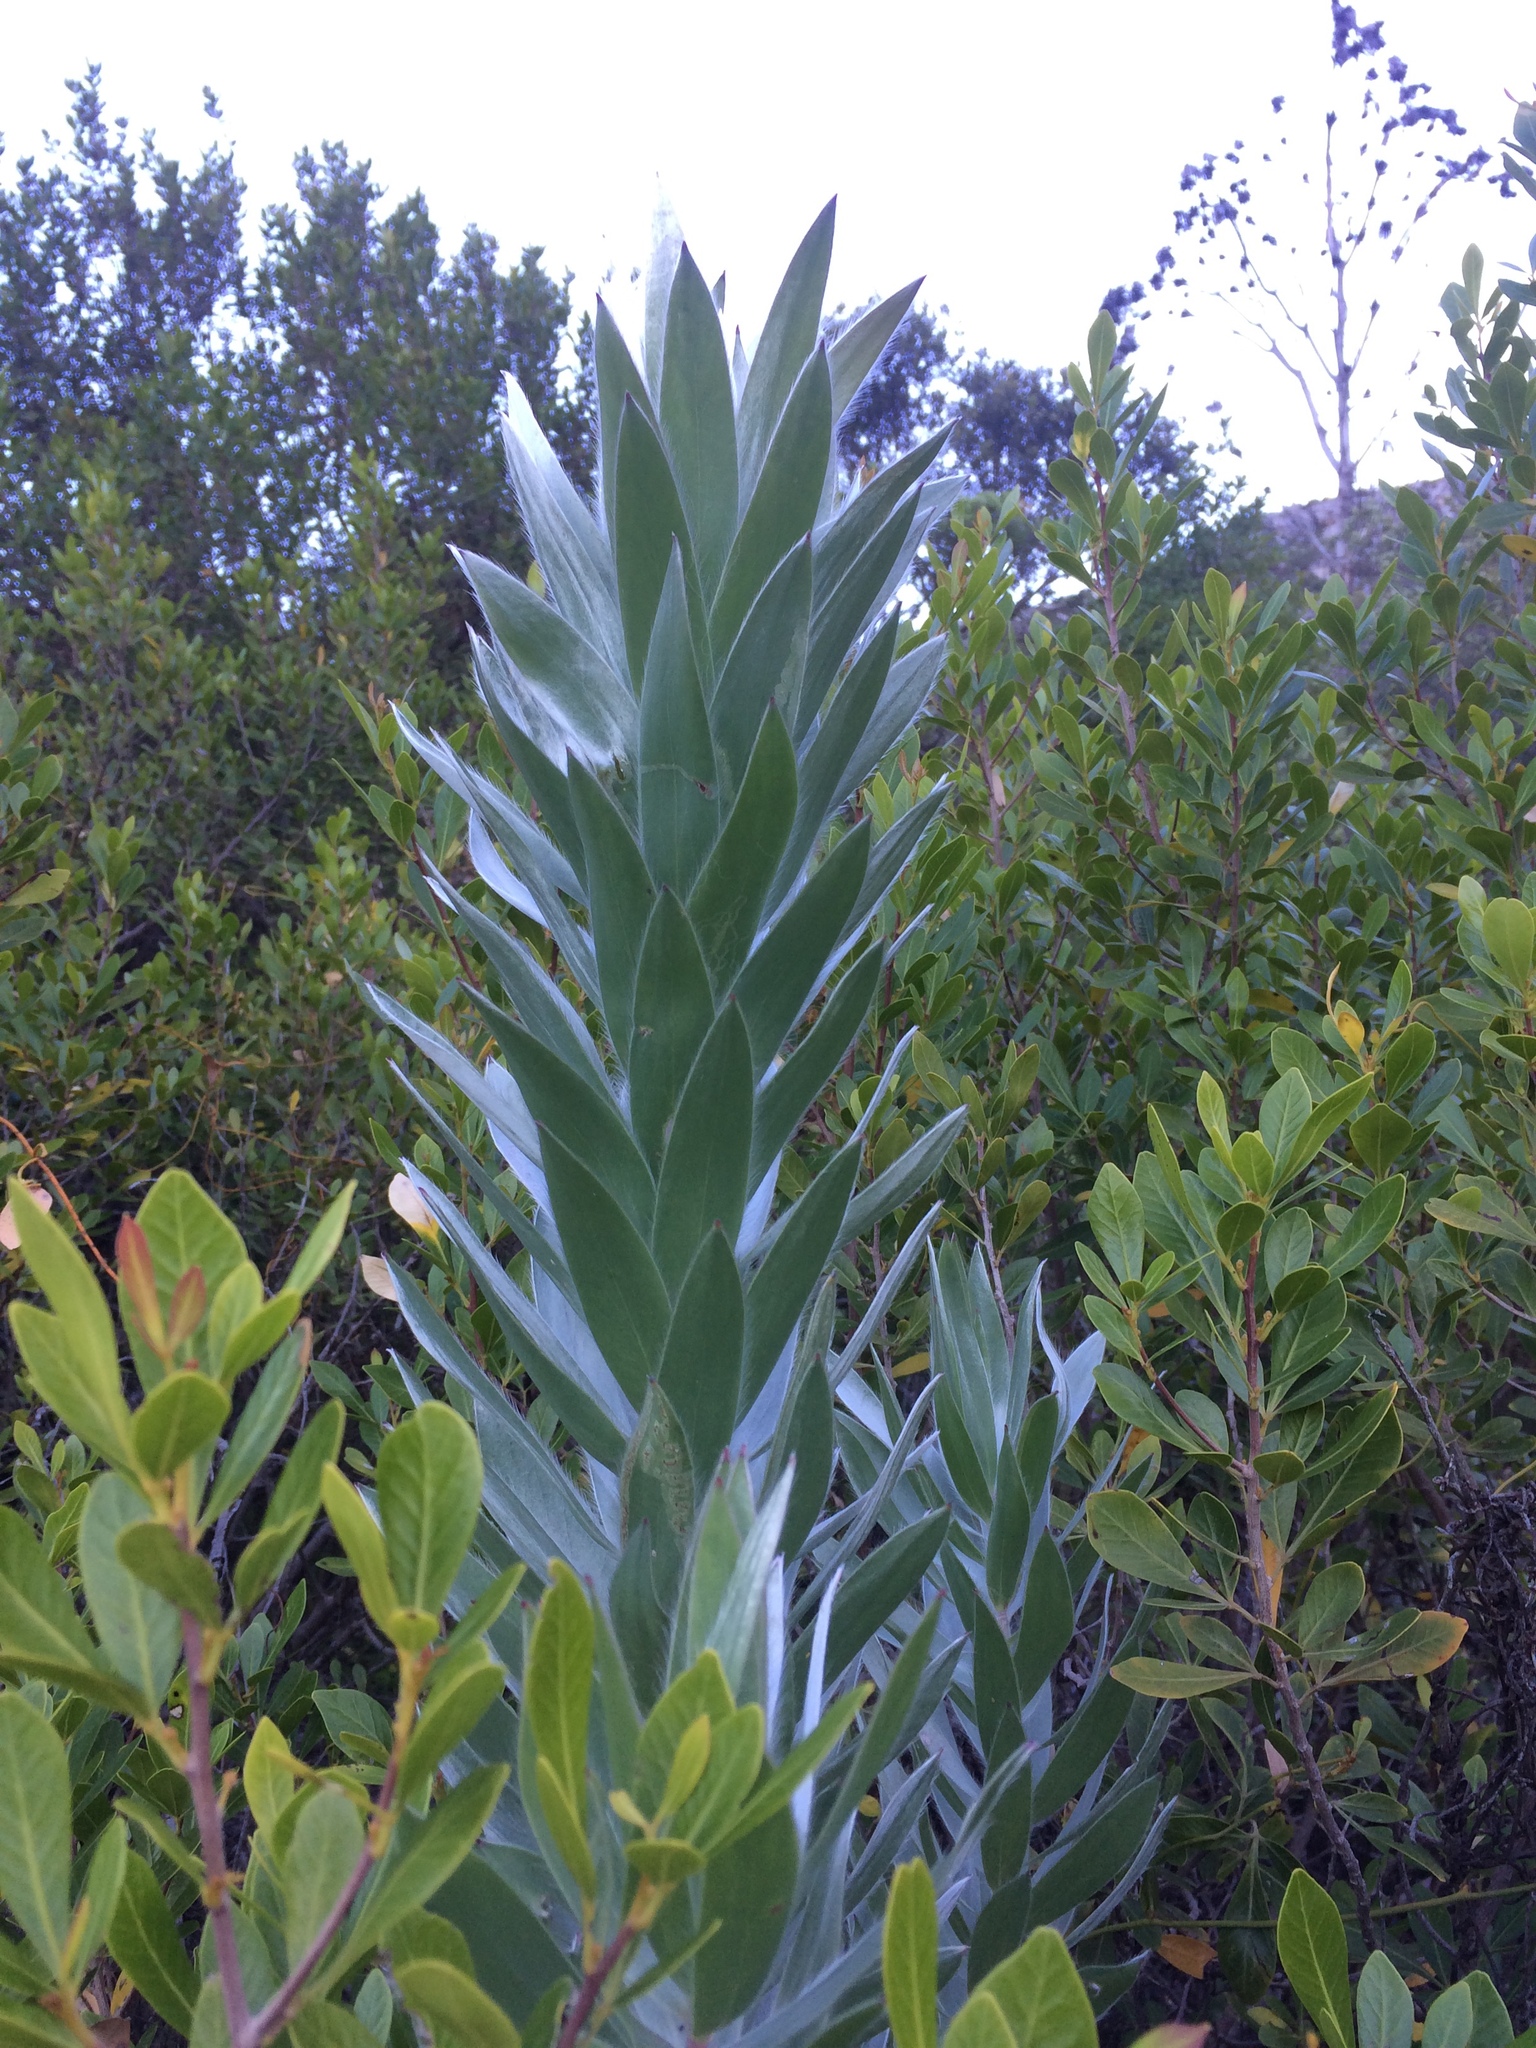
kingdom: Plantae
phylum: Tracheophyta
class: Magnoliopsida
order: Proteales
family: Proteaceae
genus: Leucadendron
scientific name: Leucadendron argenteum
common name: Cape silver tree
